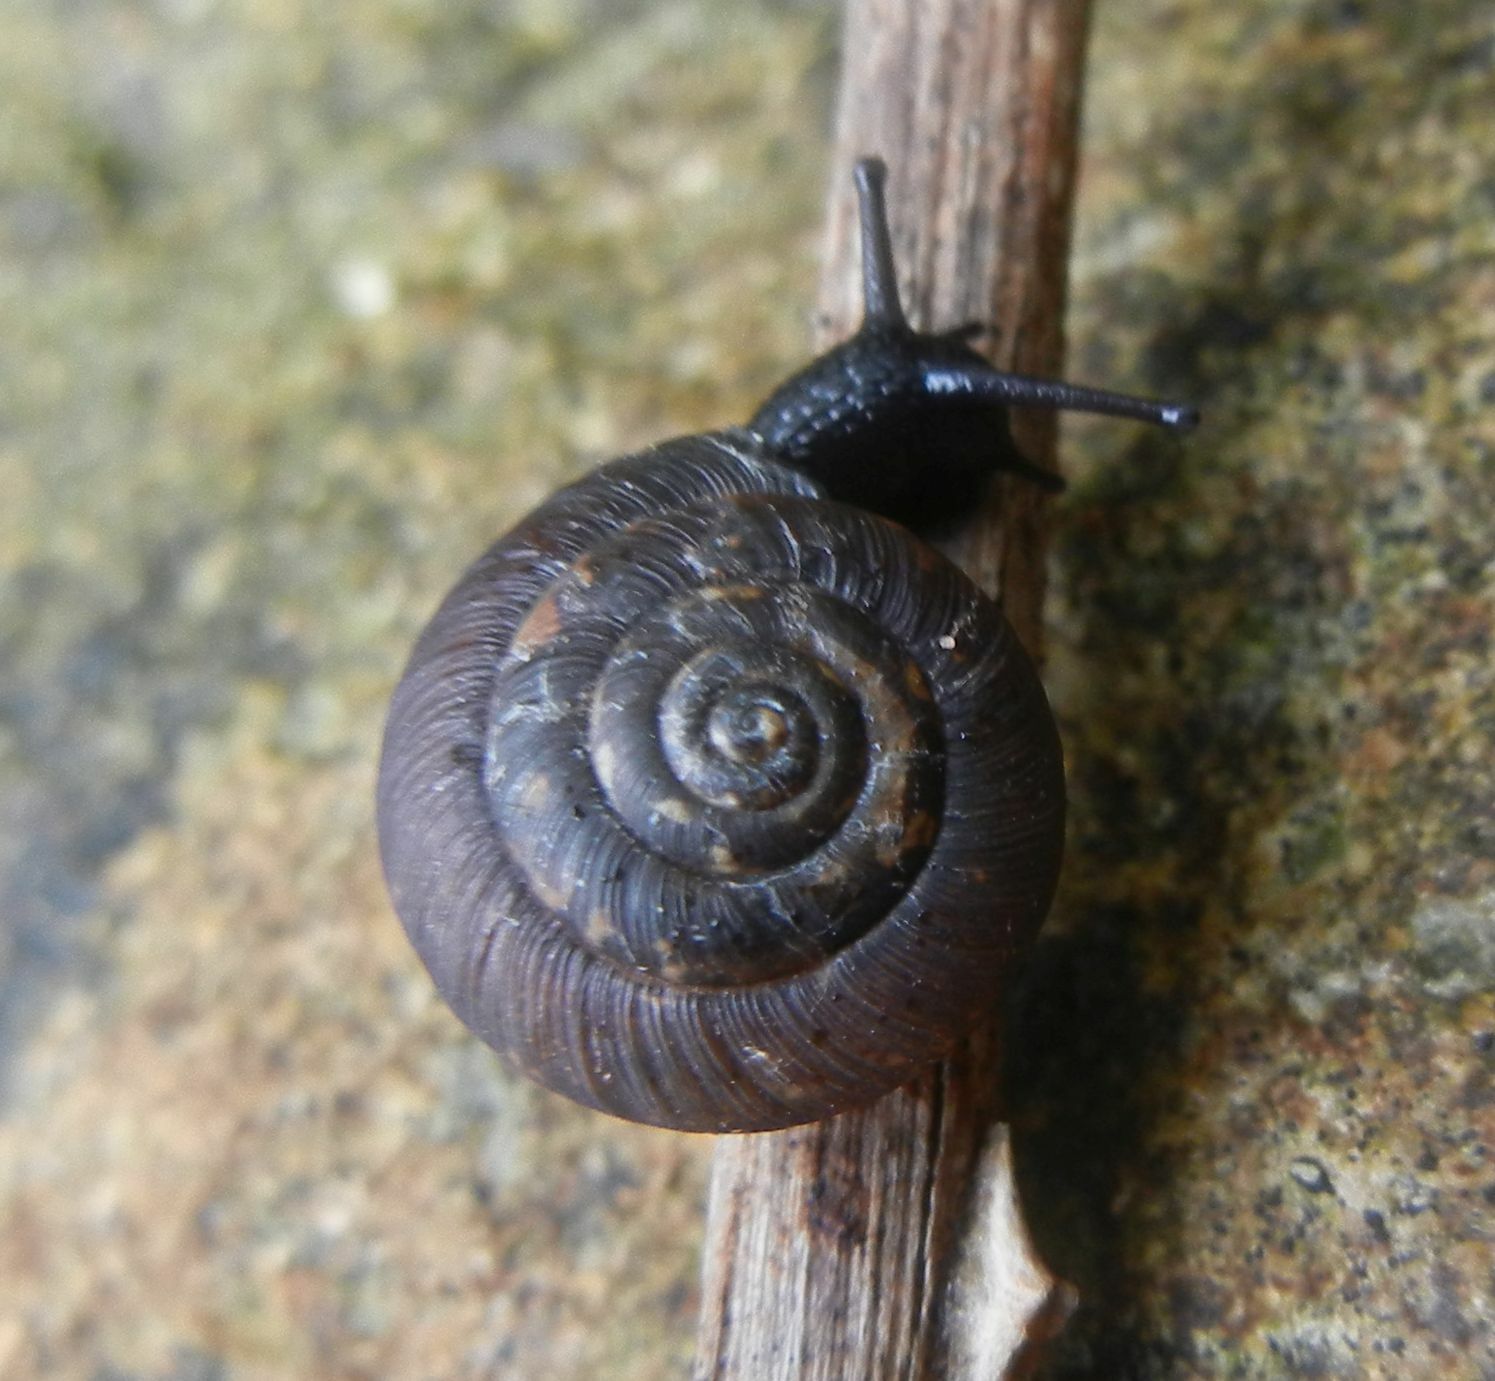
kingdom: Animalia
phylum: Mollusca
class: Gastropoda
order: Stylommatophora
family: Hygromiidae
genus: Trochulus
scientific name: Trochulus striolatus
